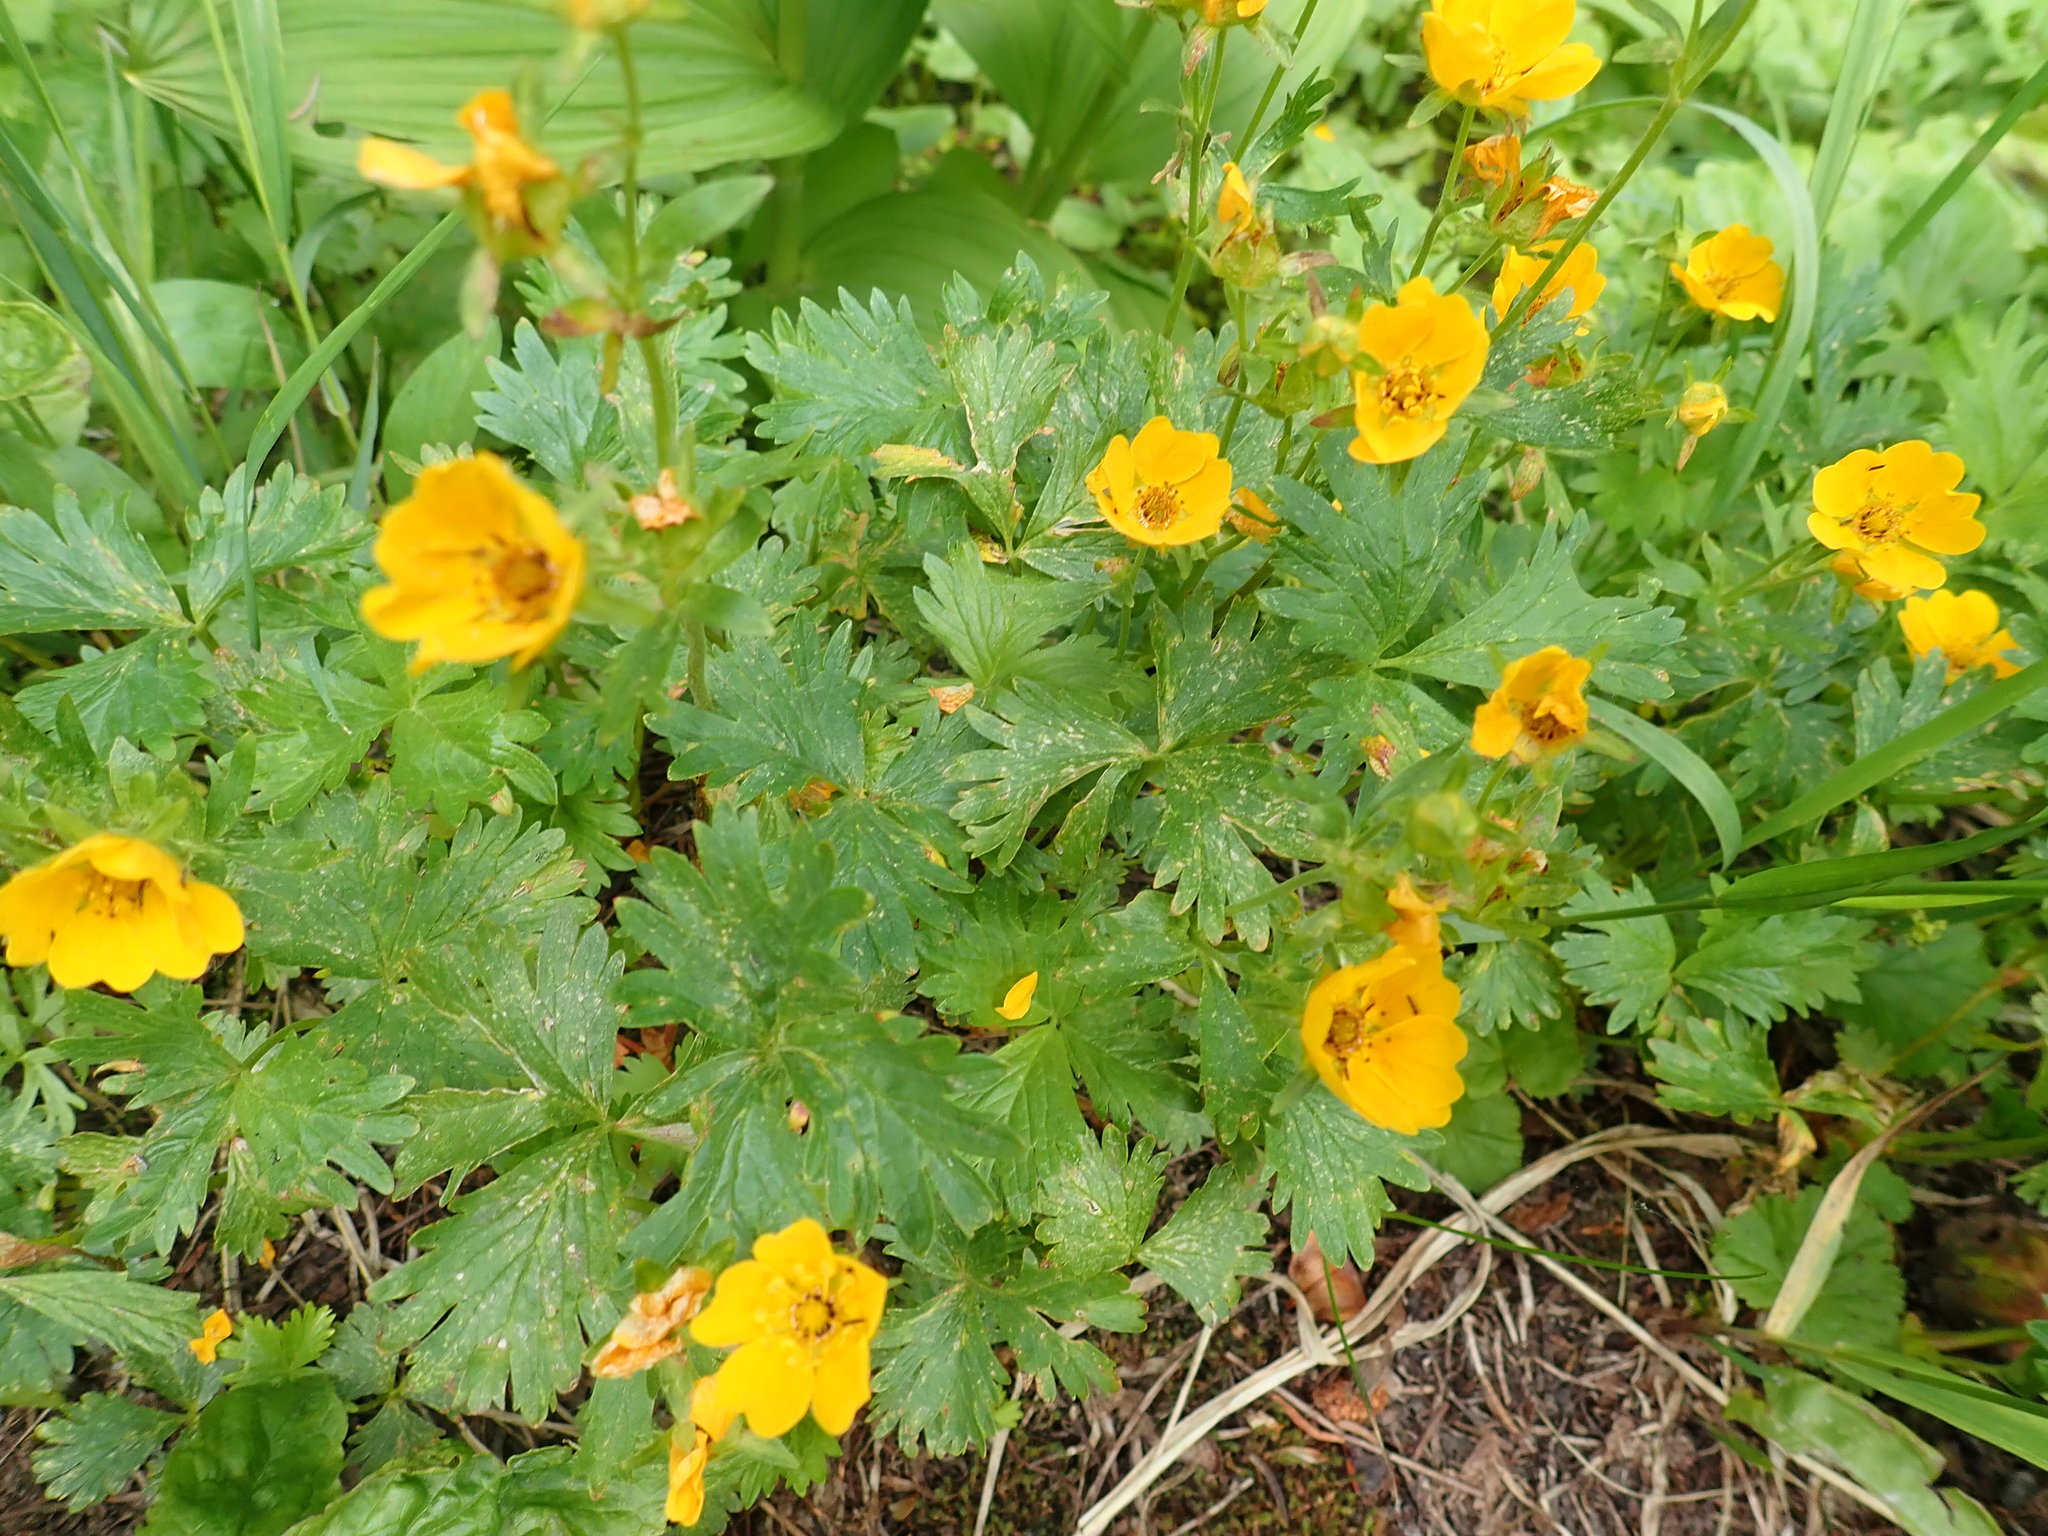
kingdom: Plantae
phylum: Tracheophyta
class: Magnoliopsida
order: Rosales
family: Rosaceae
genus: Potentilla
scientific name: Potentilla flabellifolia
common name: Mount rainier cinquefoil
